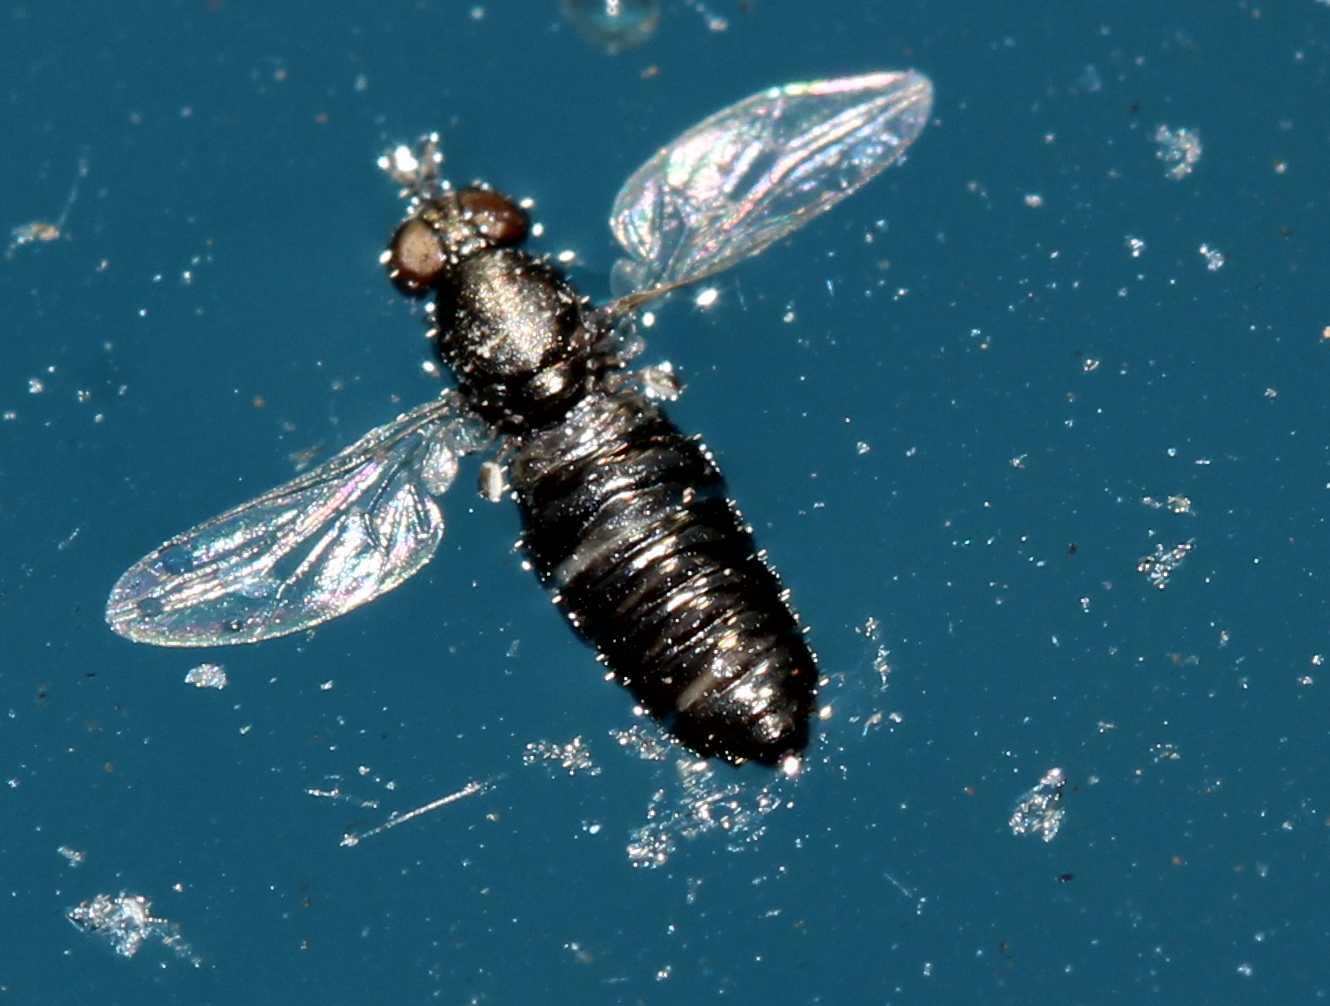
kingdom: Animalia
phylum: Arthropoda
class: Insecta
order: Diptera
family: Scenopinidae
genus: Scenopinus
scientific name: Scenopinus
